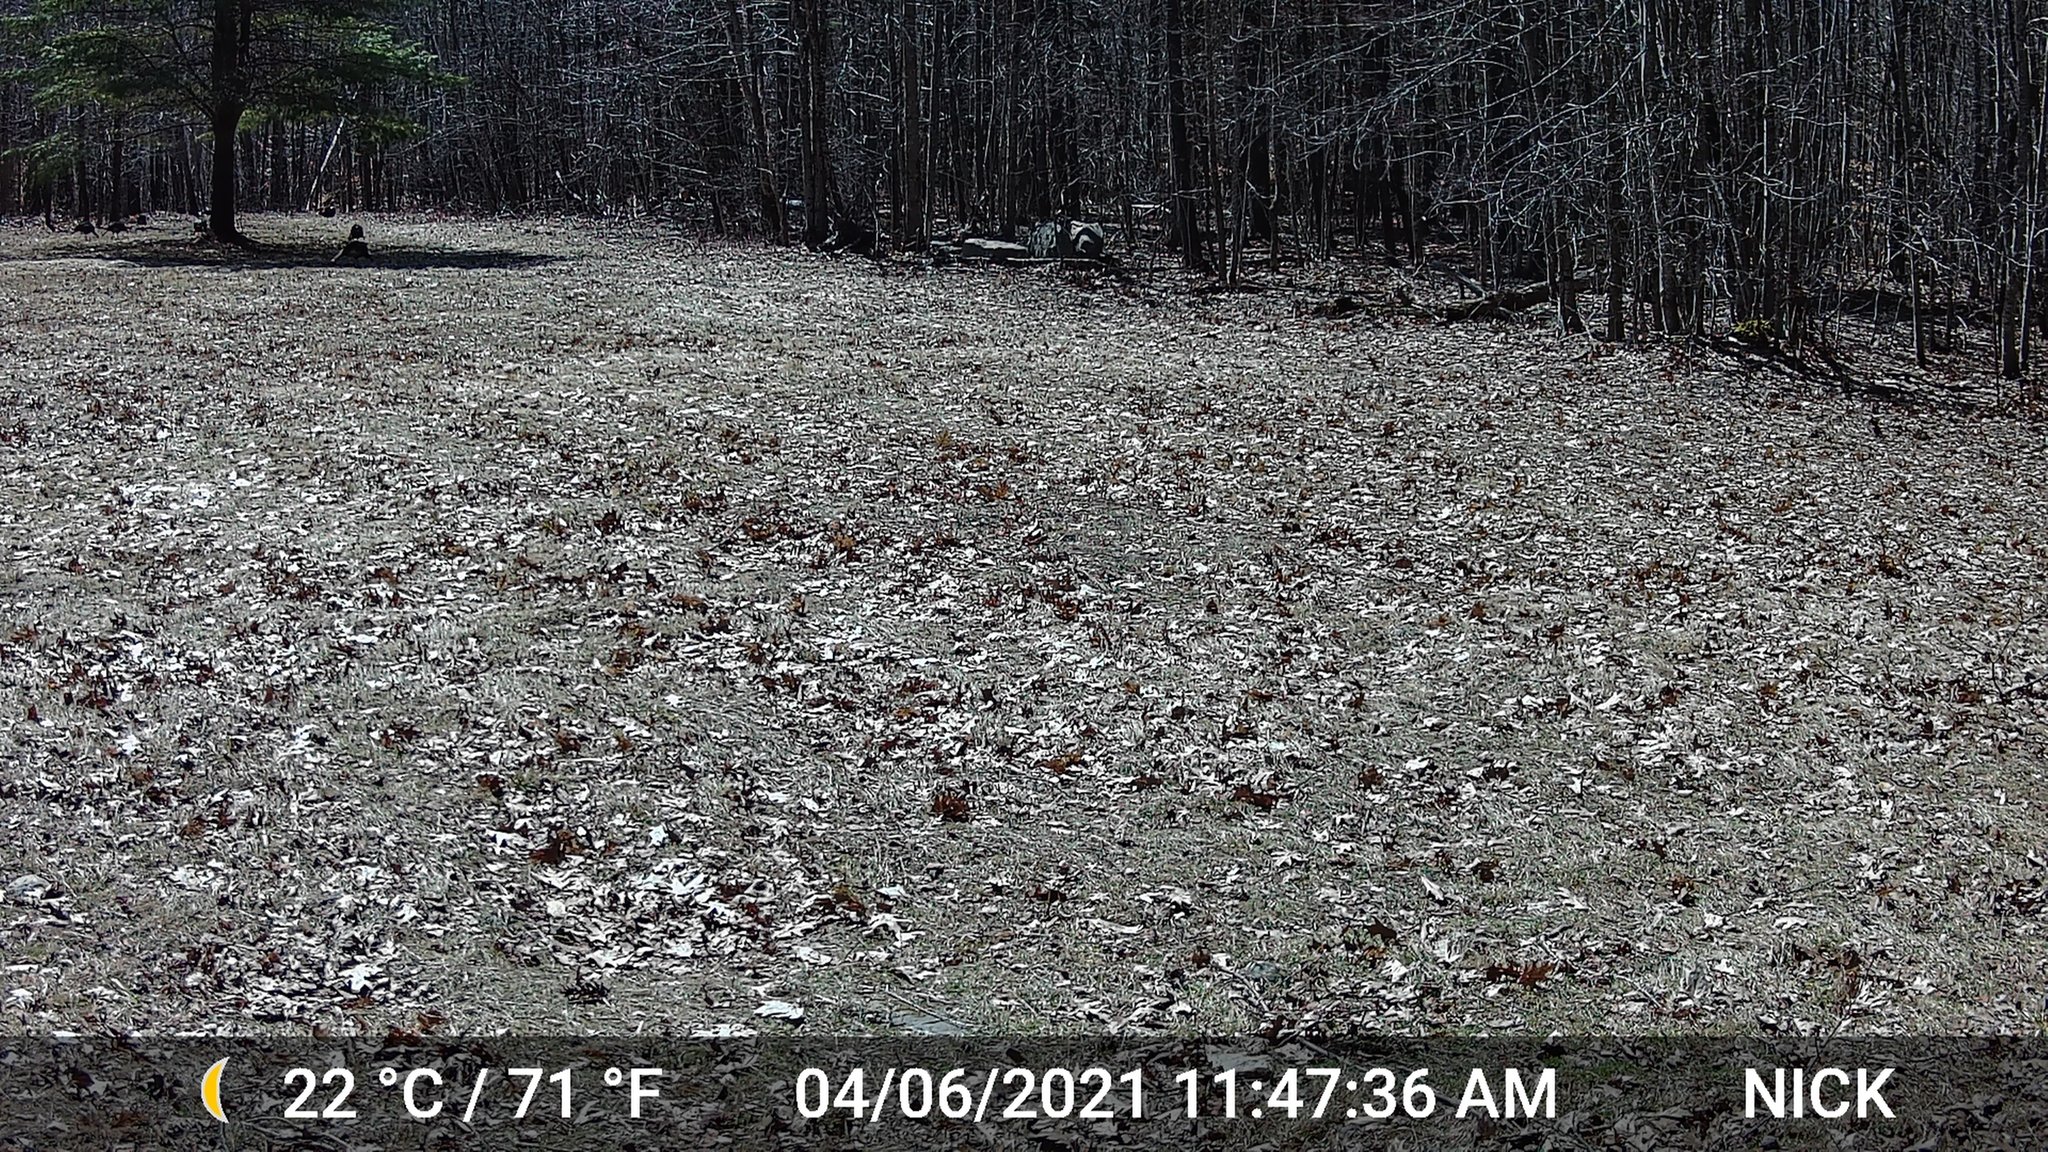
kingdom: Animalia
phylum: Chordata
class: Aves
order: Galliformes
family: Phasianidae
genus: Meleagris
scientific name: Meleagris gallopavo
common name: Wild turkey
